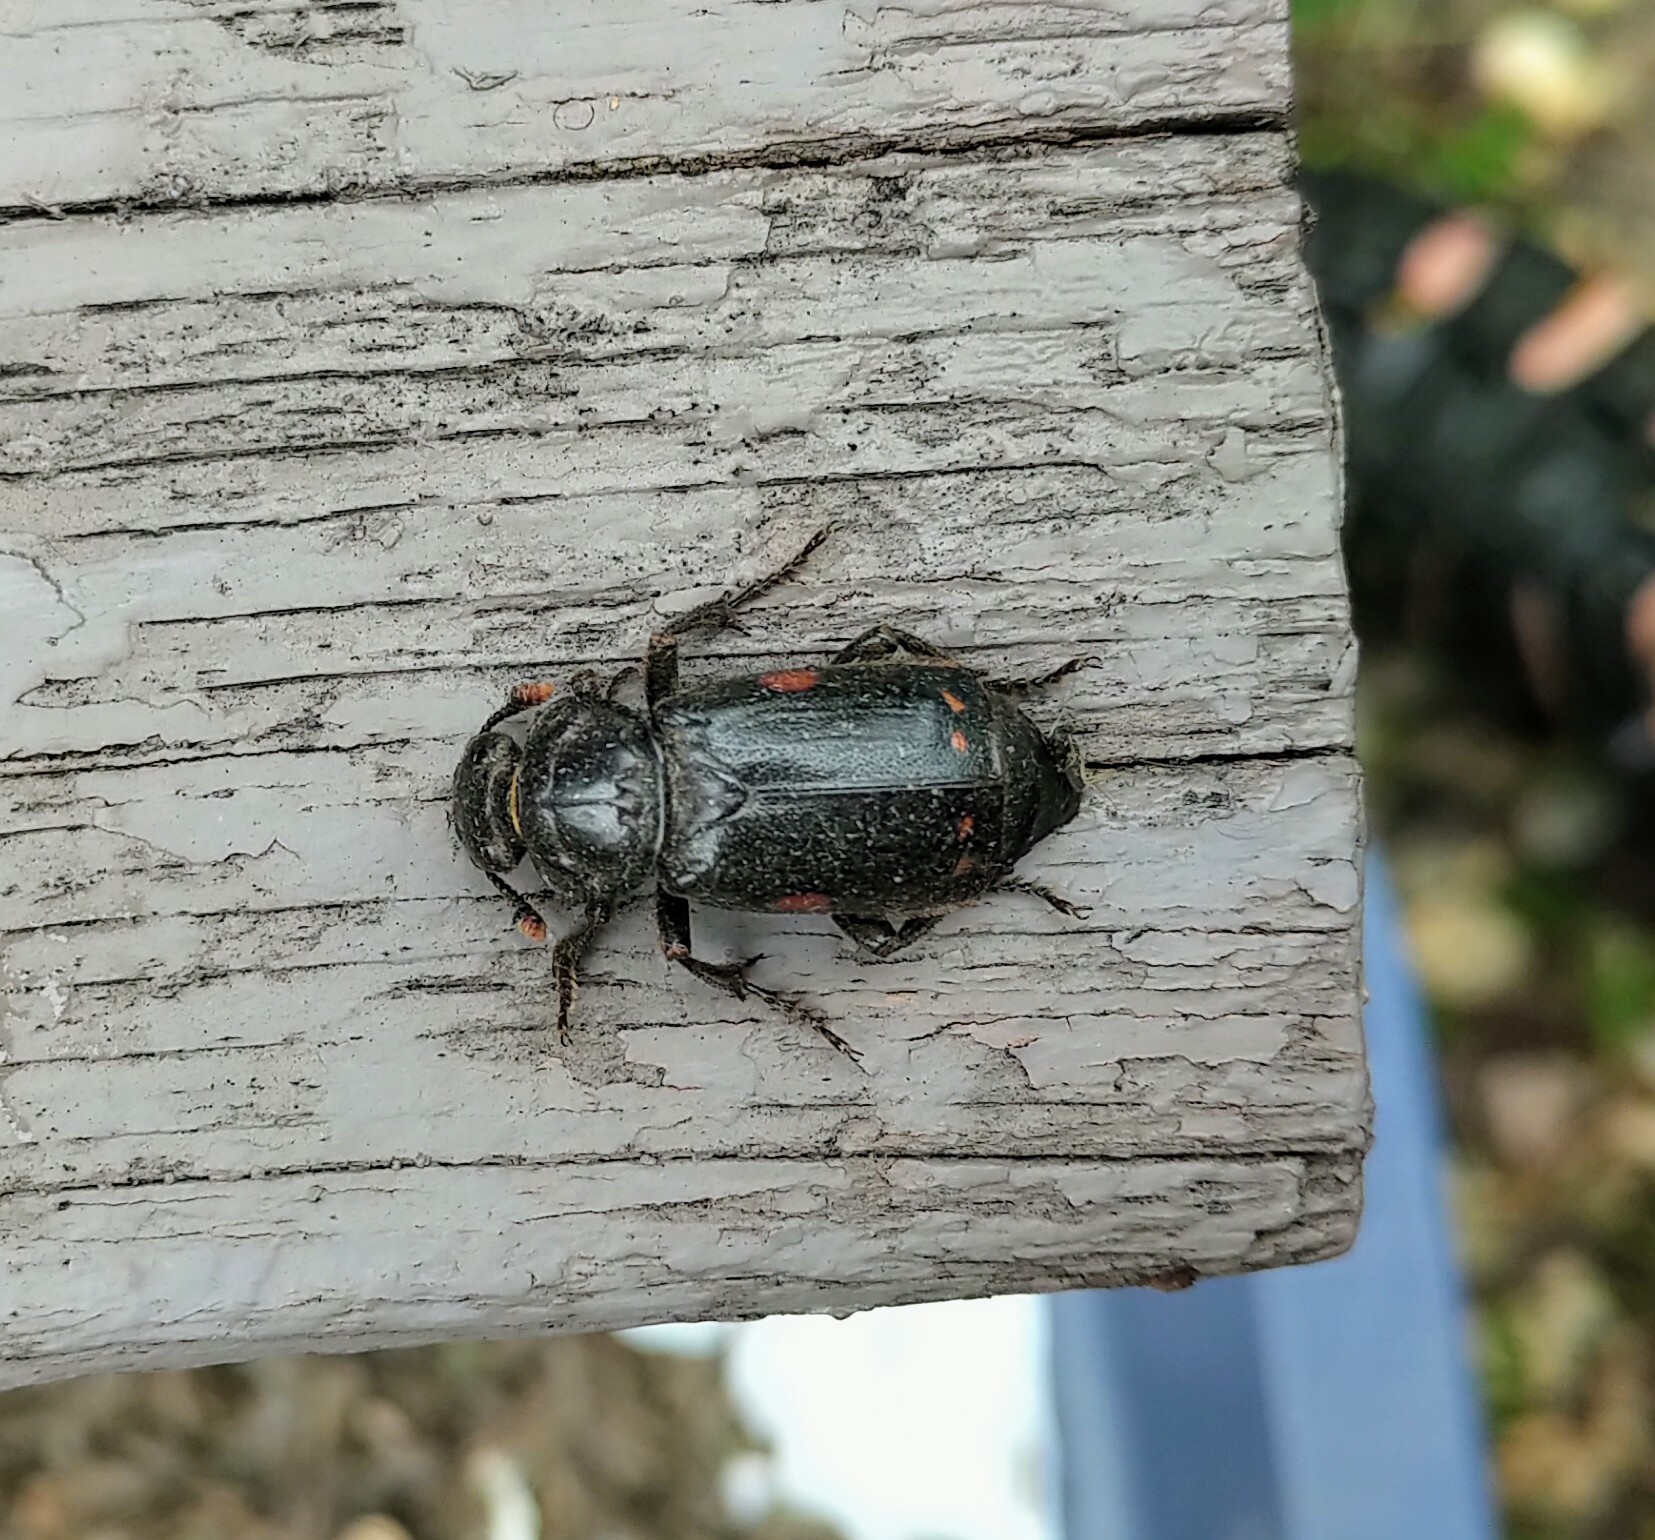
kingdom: Animalia
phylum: Arthropoda
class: Insecta
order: Coleoptera
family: Staphylinidae
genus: Nicrophorus
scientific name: Nicrophorus pustulatus
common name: Pustulated carrion beetle
